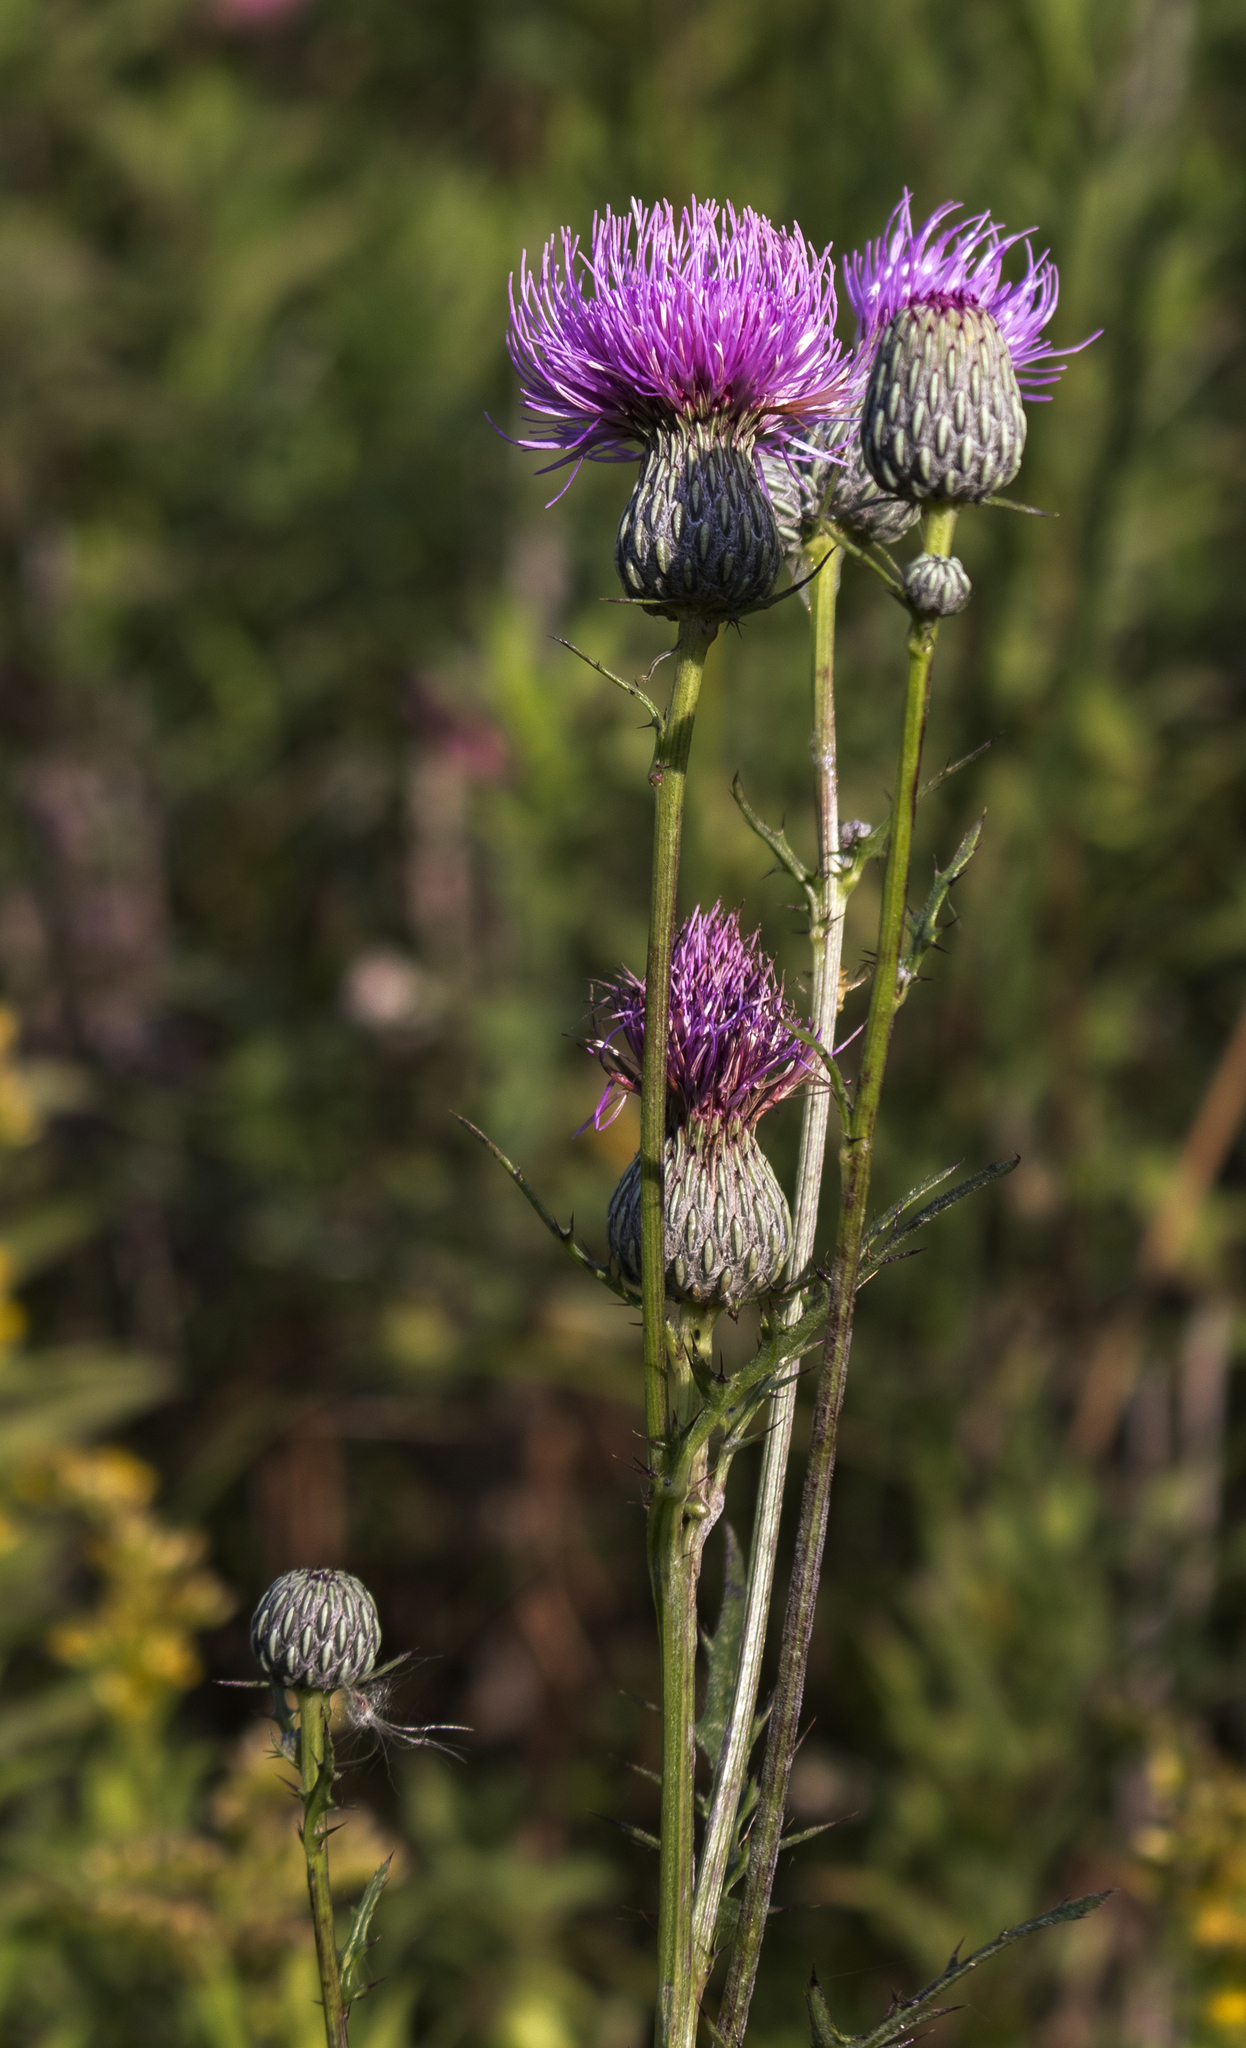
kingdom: Plantae
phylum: Tracheophyta
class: Magnoliopsida
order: Asterales
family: Asteraceae
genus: Cirsium
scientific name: Cirsium muticum
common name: Dunce-nettle
